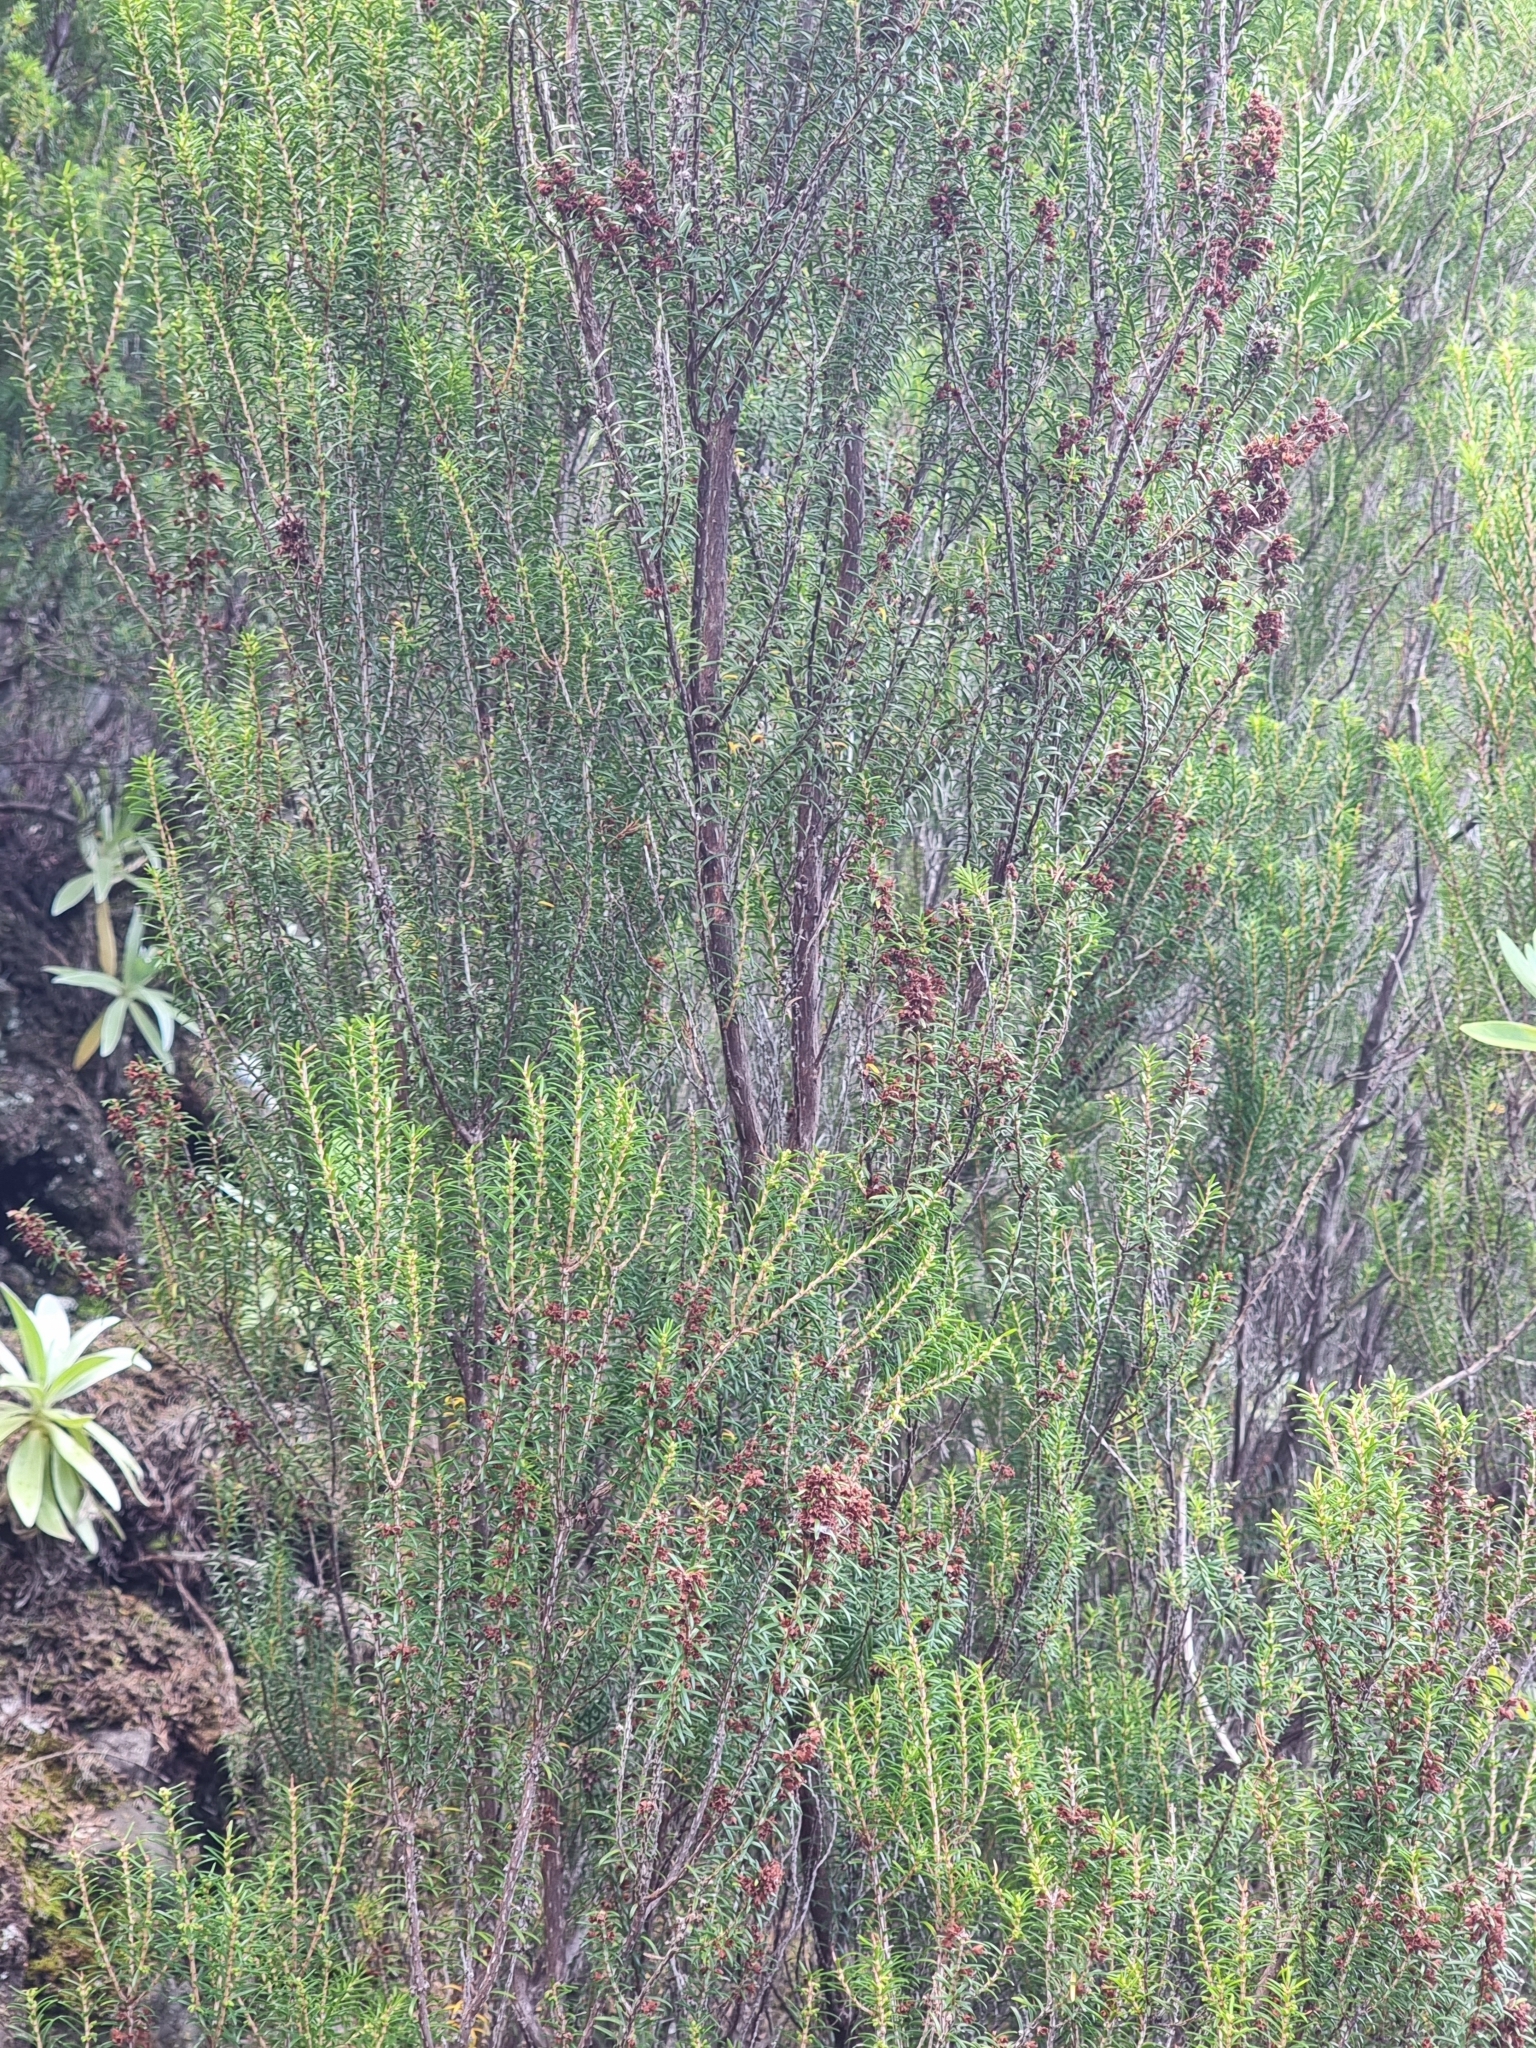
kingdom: Plantae
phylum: Tracheophyta
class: Magnoliopsida
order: Ericales
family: Ericaceae
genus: Erica
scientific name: Erica platycodon
